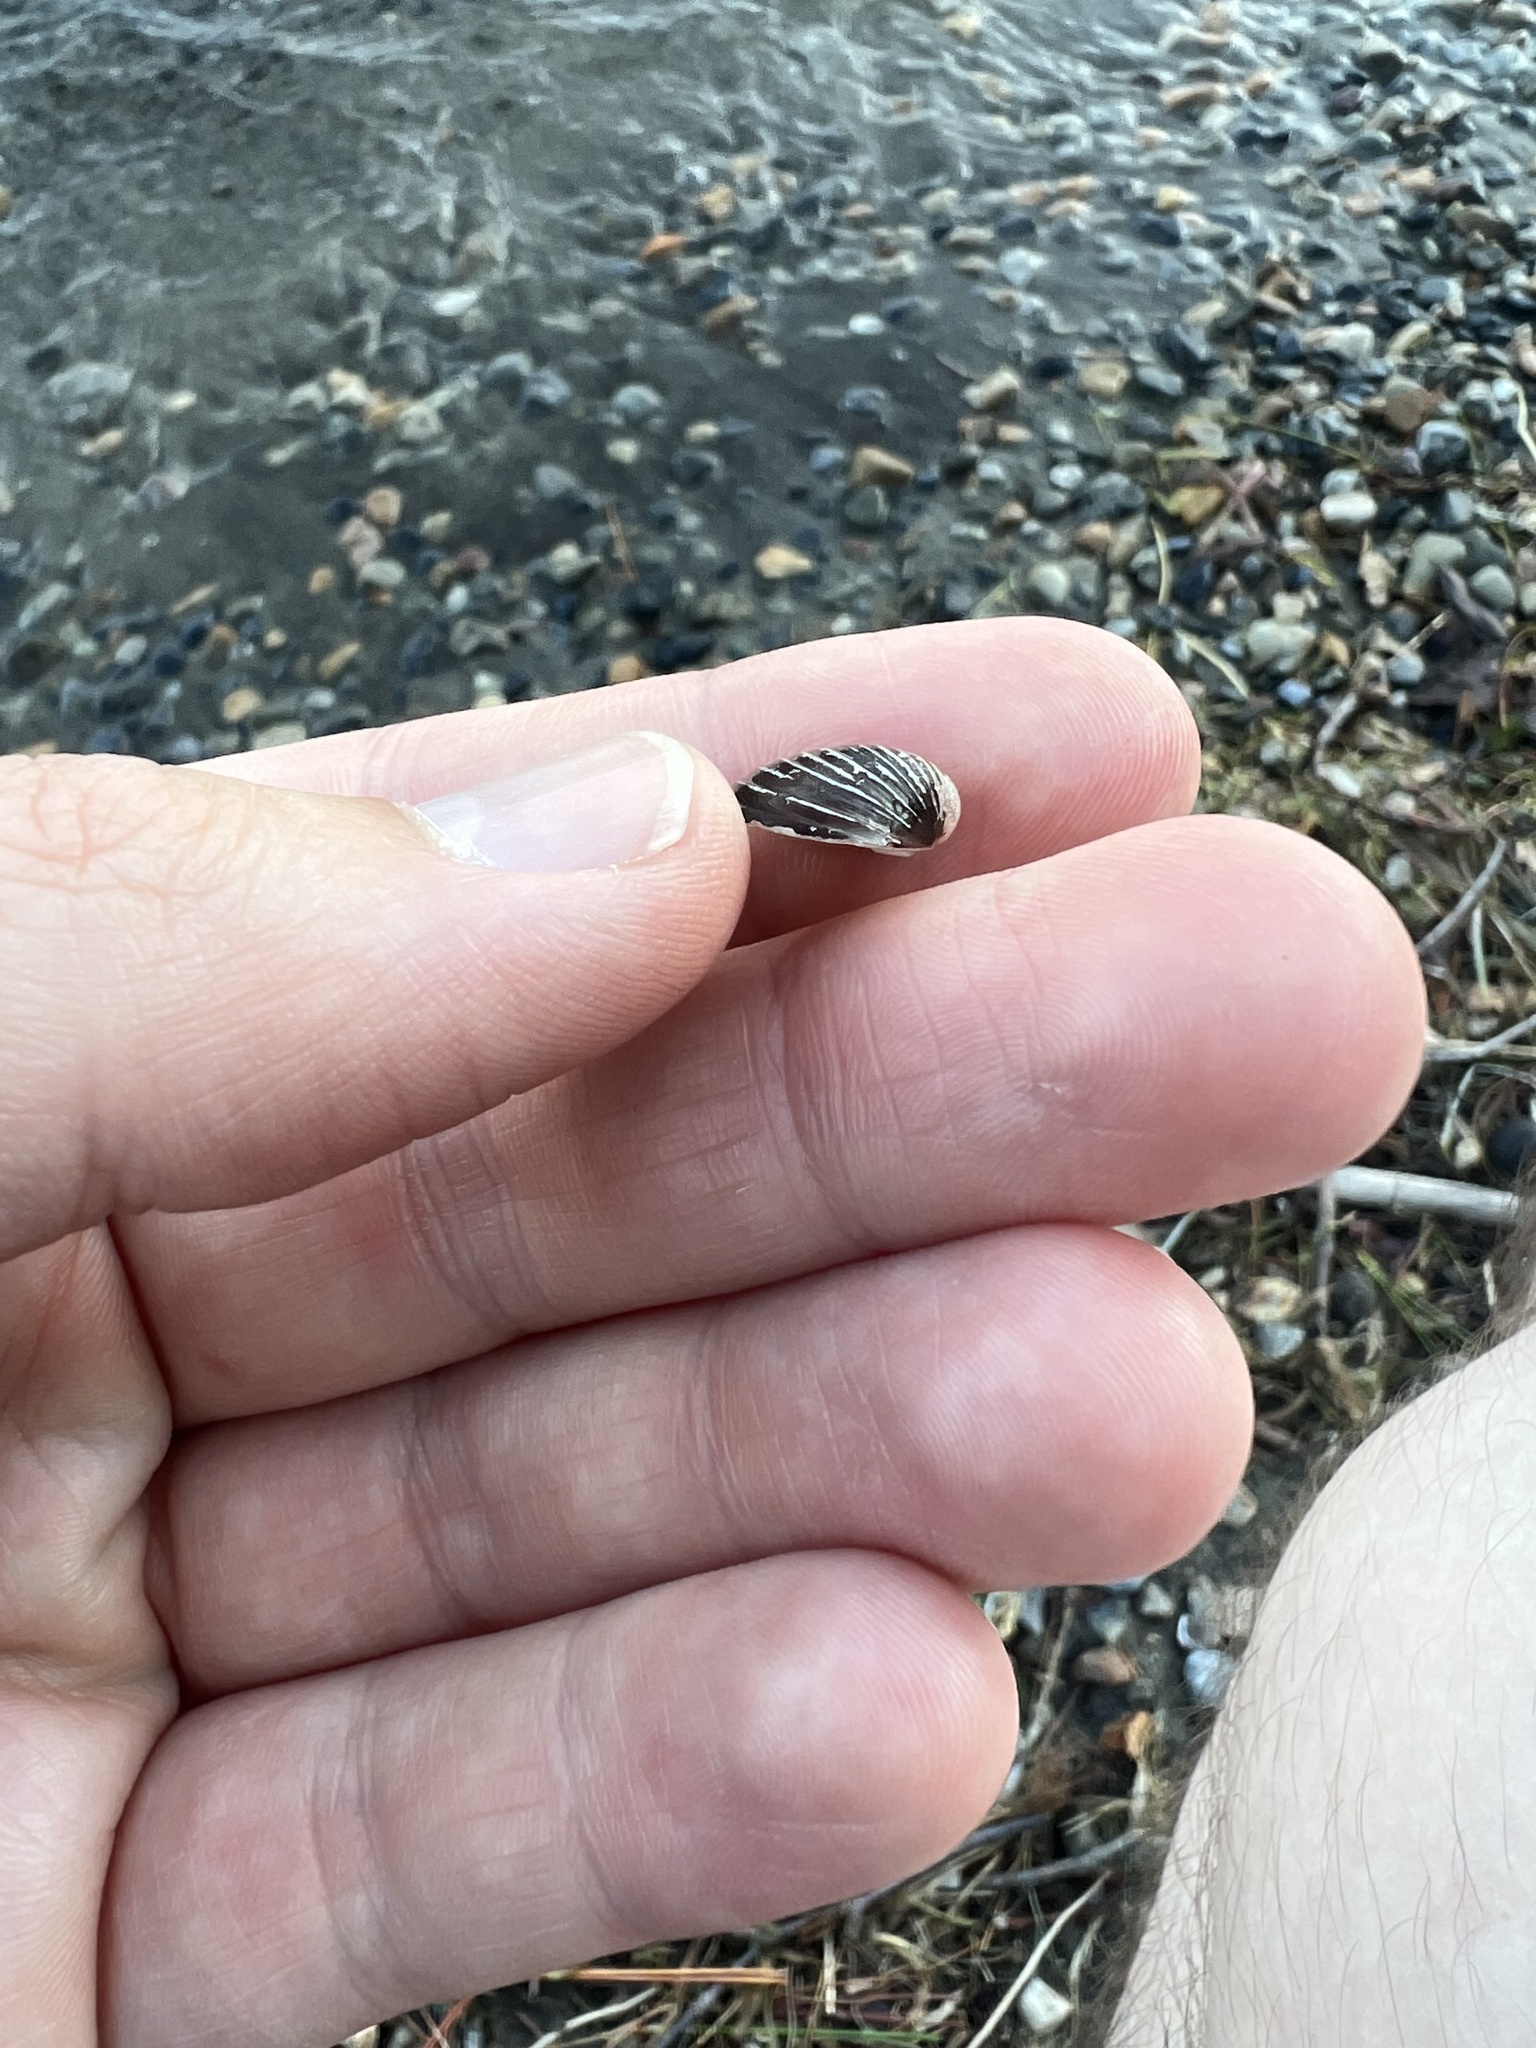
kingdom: Animalia
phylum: Mollusca
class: Bivalvia
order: Venerida
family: Cyrenidae
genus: Corbicula
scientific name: Corbicula fluminea
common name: Asian clam
